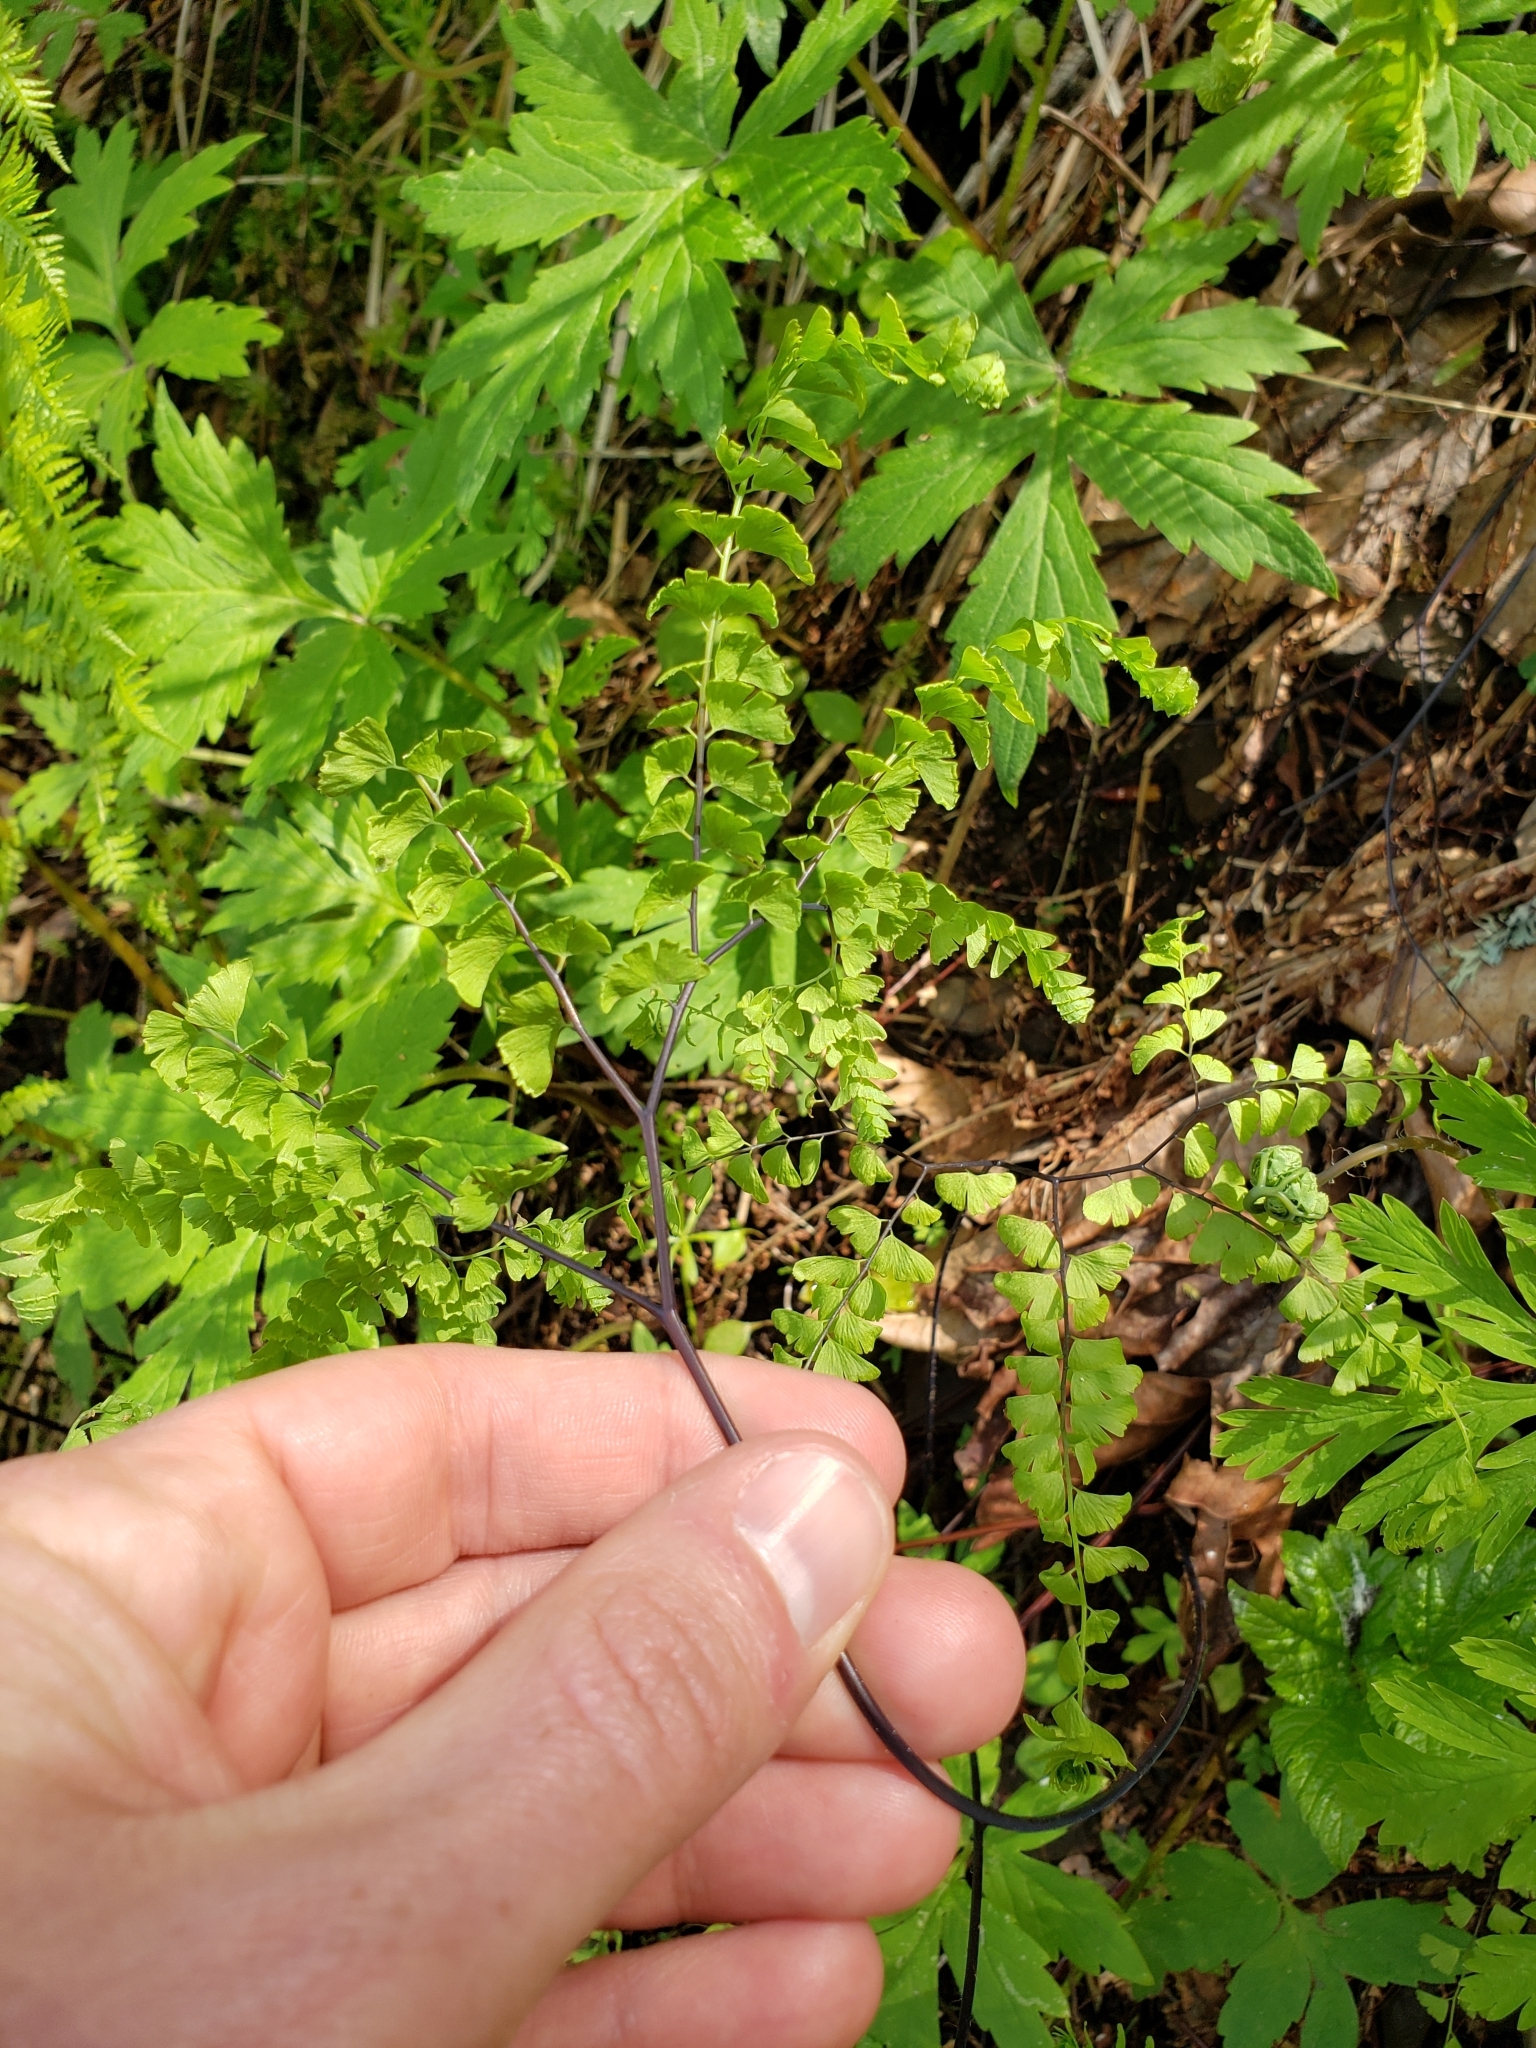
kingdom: Plantae
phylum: Tracheophyta
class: Polypodiopsida
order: Polypodiales
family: Pteridaceae
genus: Adiantum
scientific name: Adiantum aleuticum
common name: Aleutian maidenhair fern
